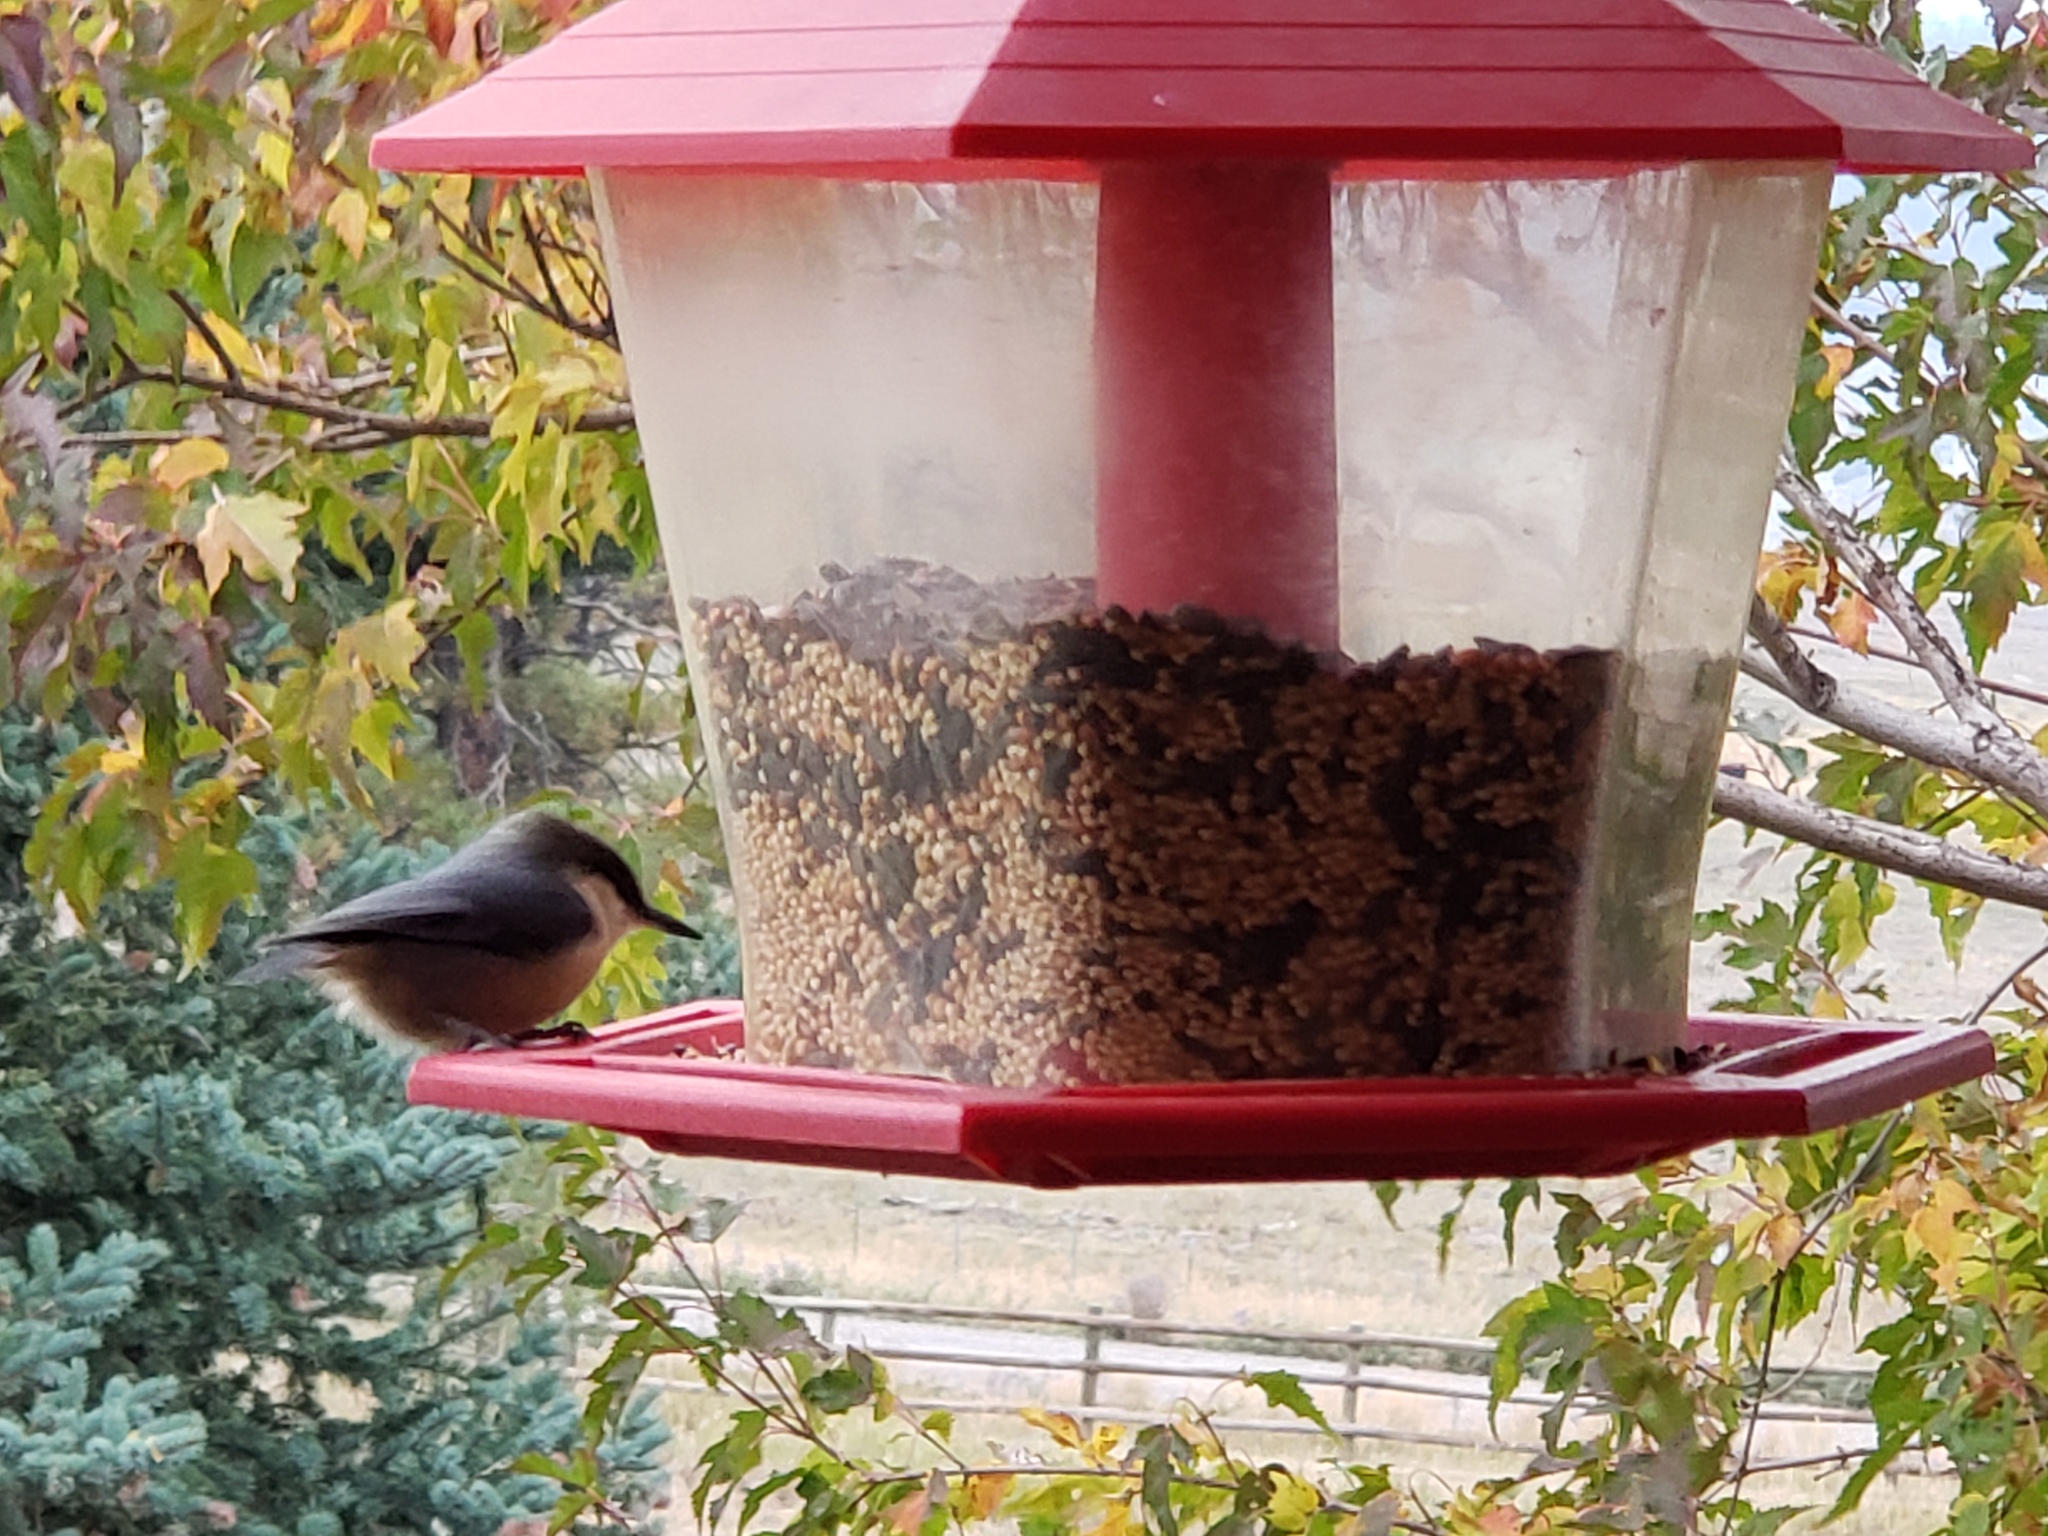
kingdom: Animalia
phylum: Chordata
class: Aves
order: Passeriformes
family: Sittidae
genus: Sitta
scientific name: Sitta pygmaea
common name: Pygmy nuthatch
